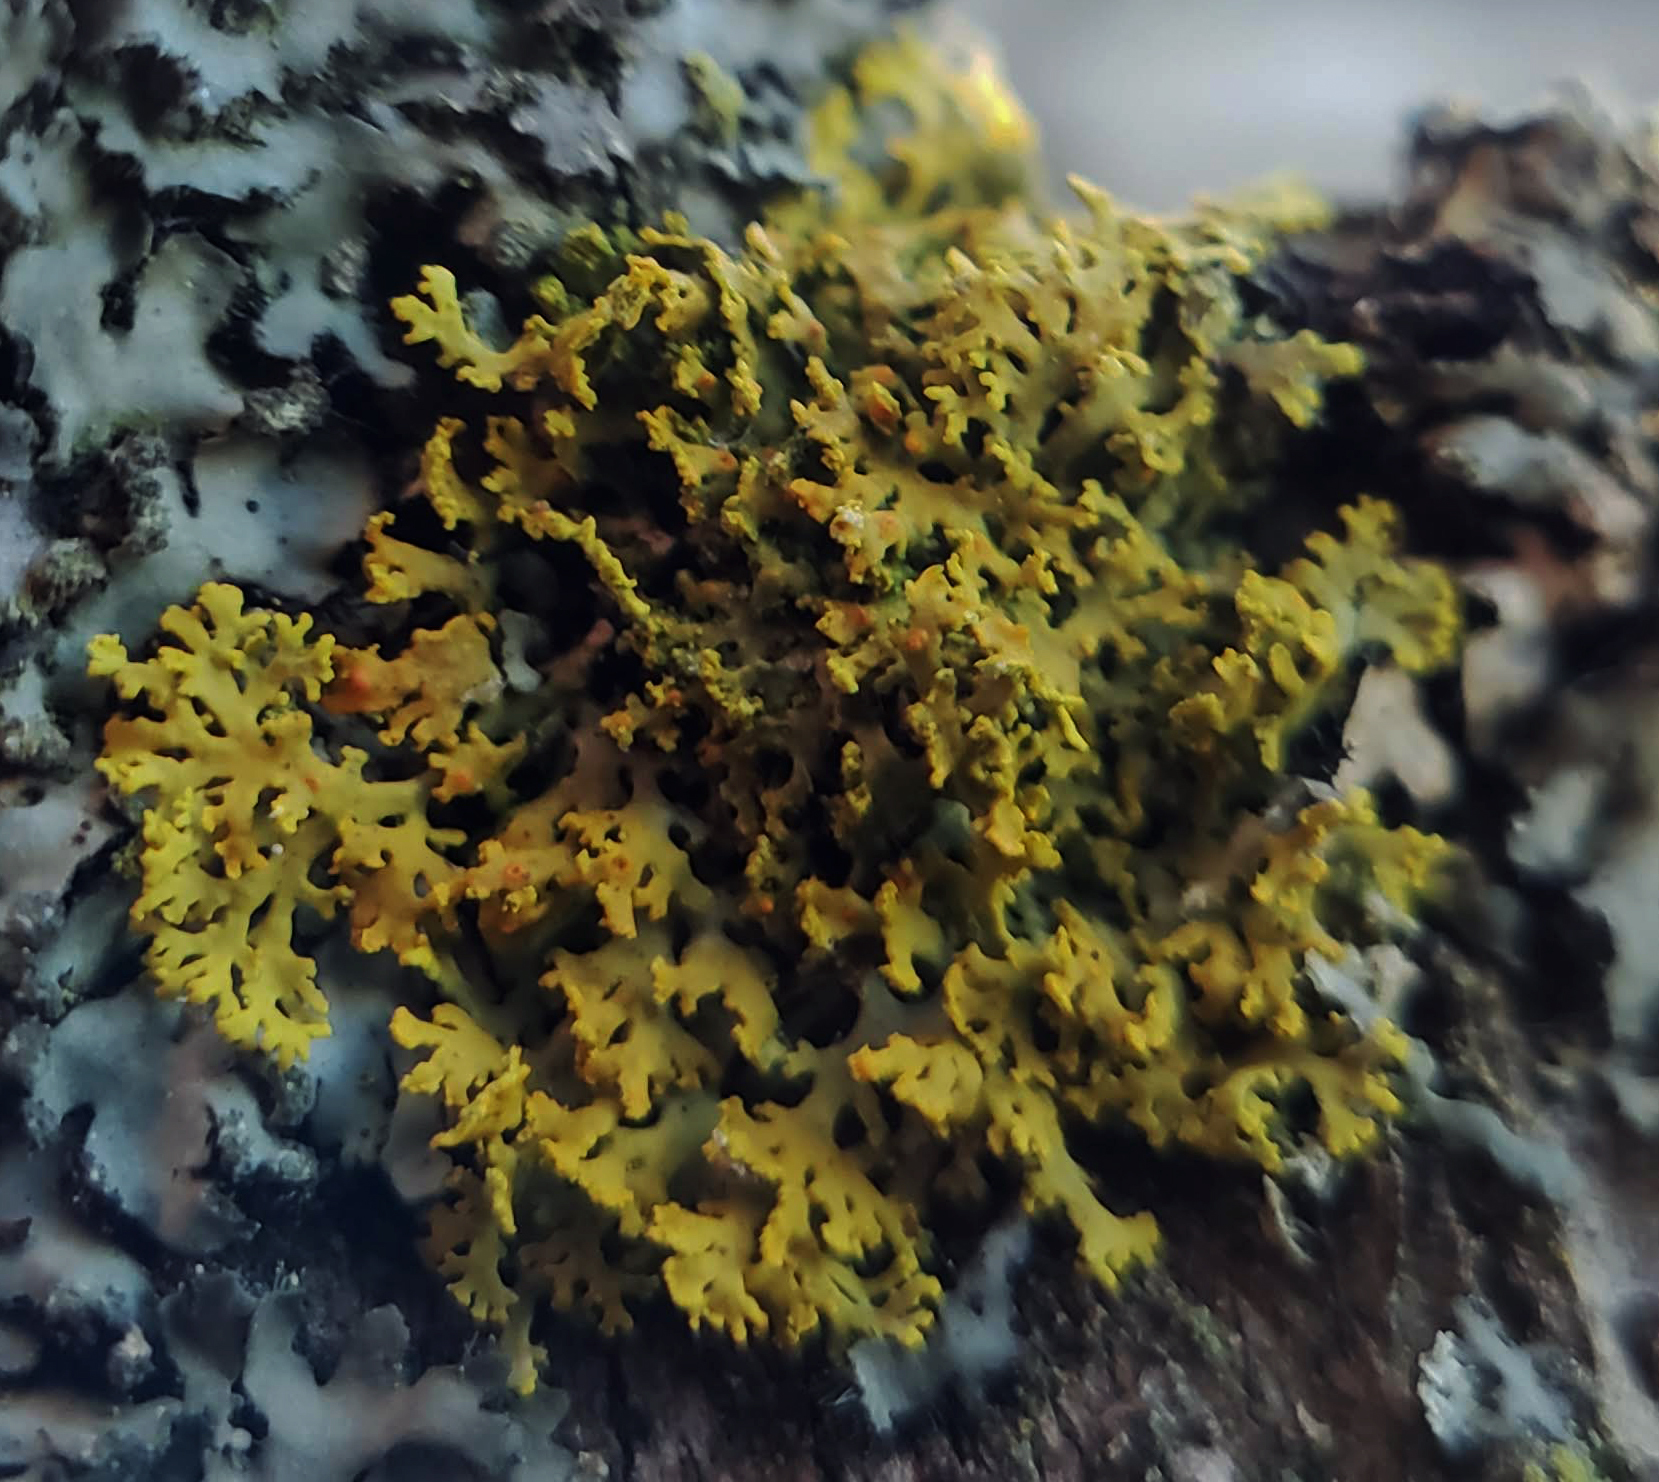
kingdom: Fungi
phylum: Ascomycota
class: Lecanoromycetes
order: Teloschistales
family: Teloschistaceae
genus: Gallowayella
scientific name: Gallowayella weberi
